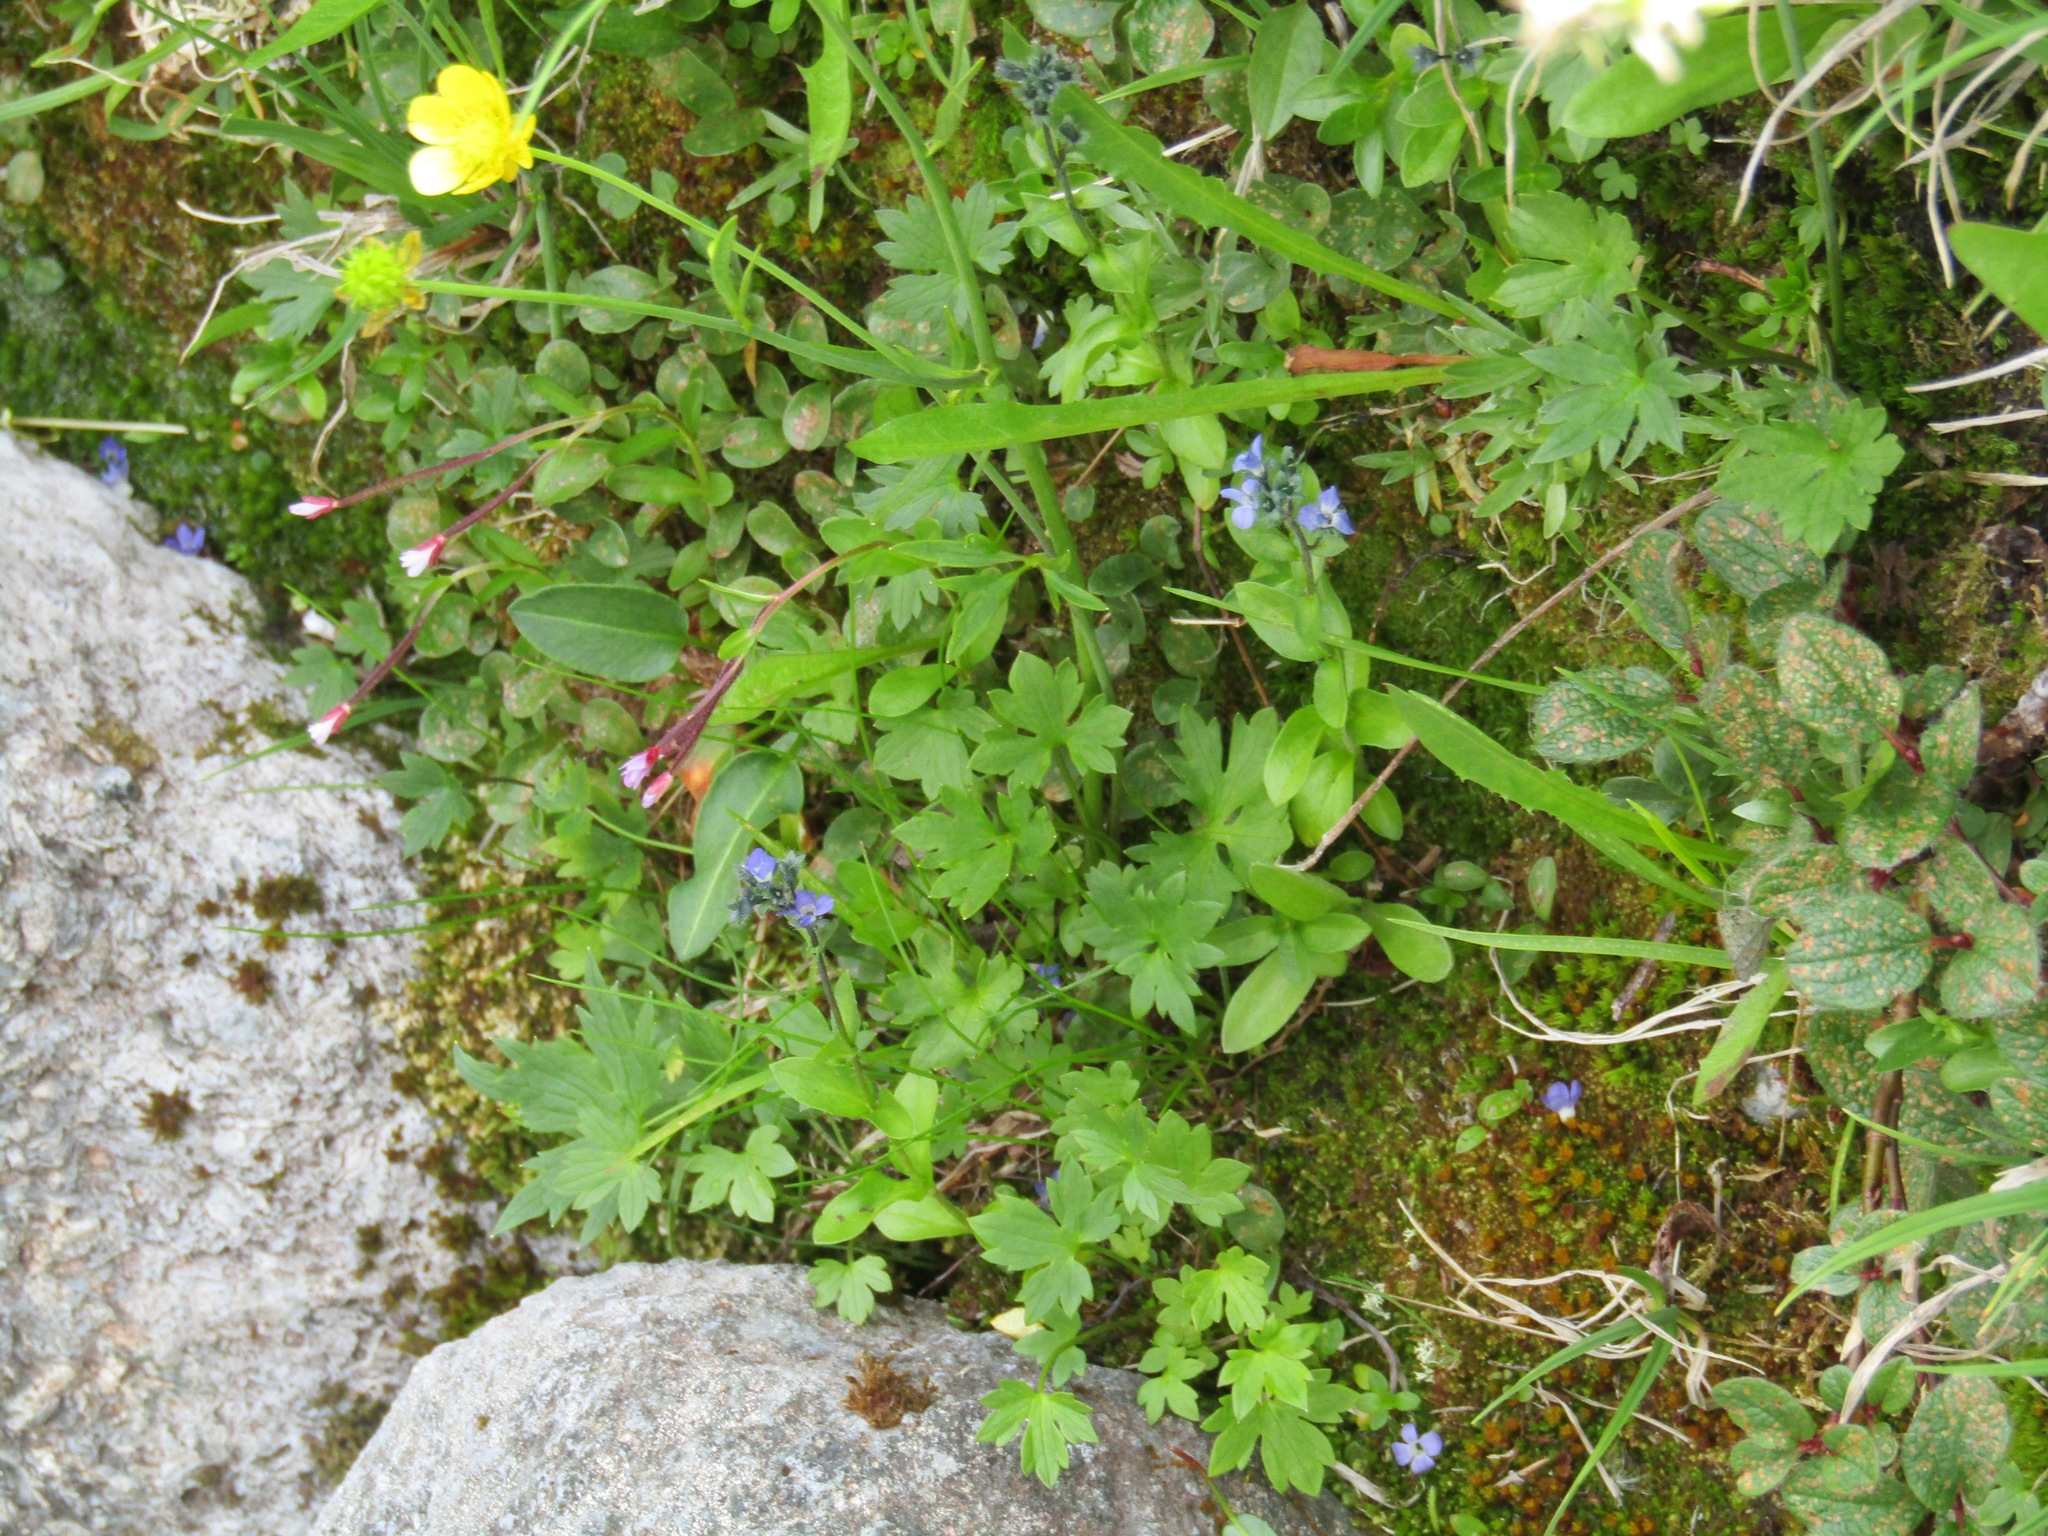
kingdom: Plantae
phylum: Tracheophyta
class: Magnoliopsida
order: Ranunculales
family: Ranunculaceae
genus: Ranunculus
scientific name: Ranunculus propinquus
